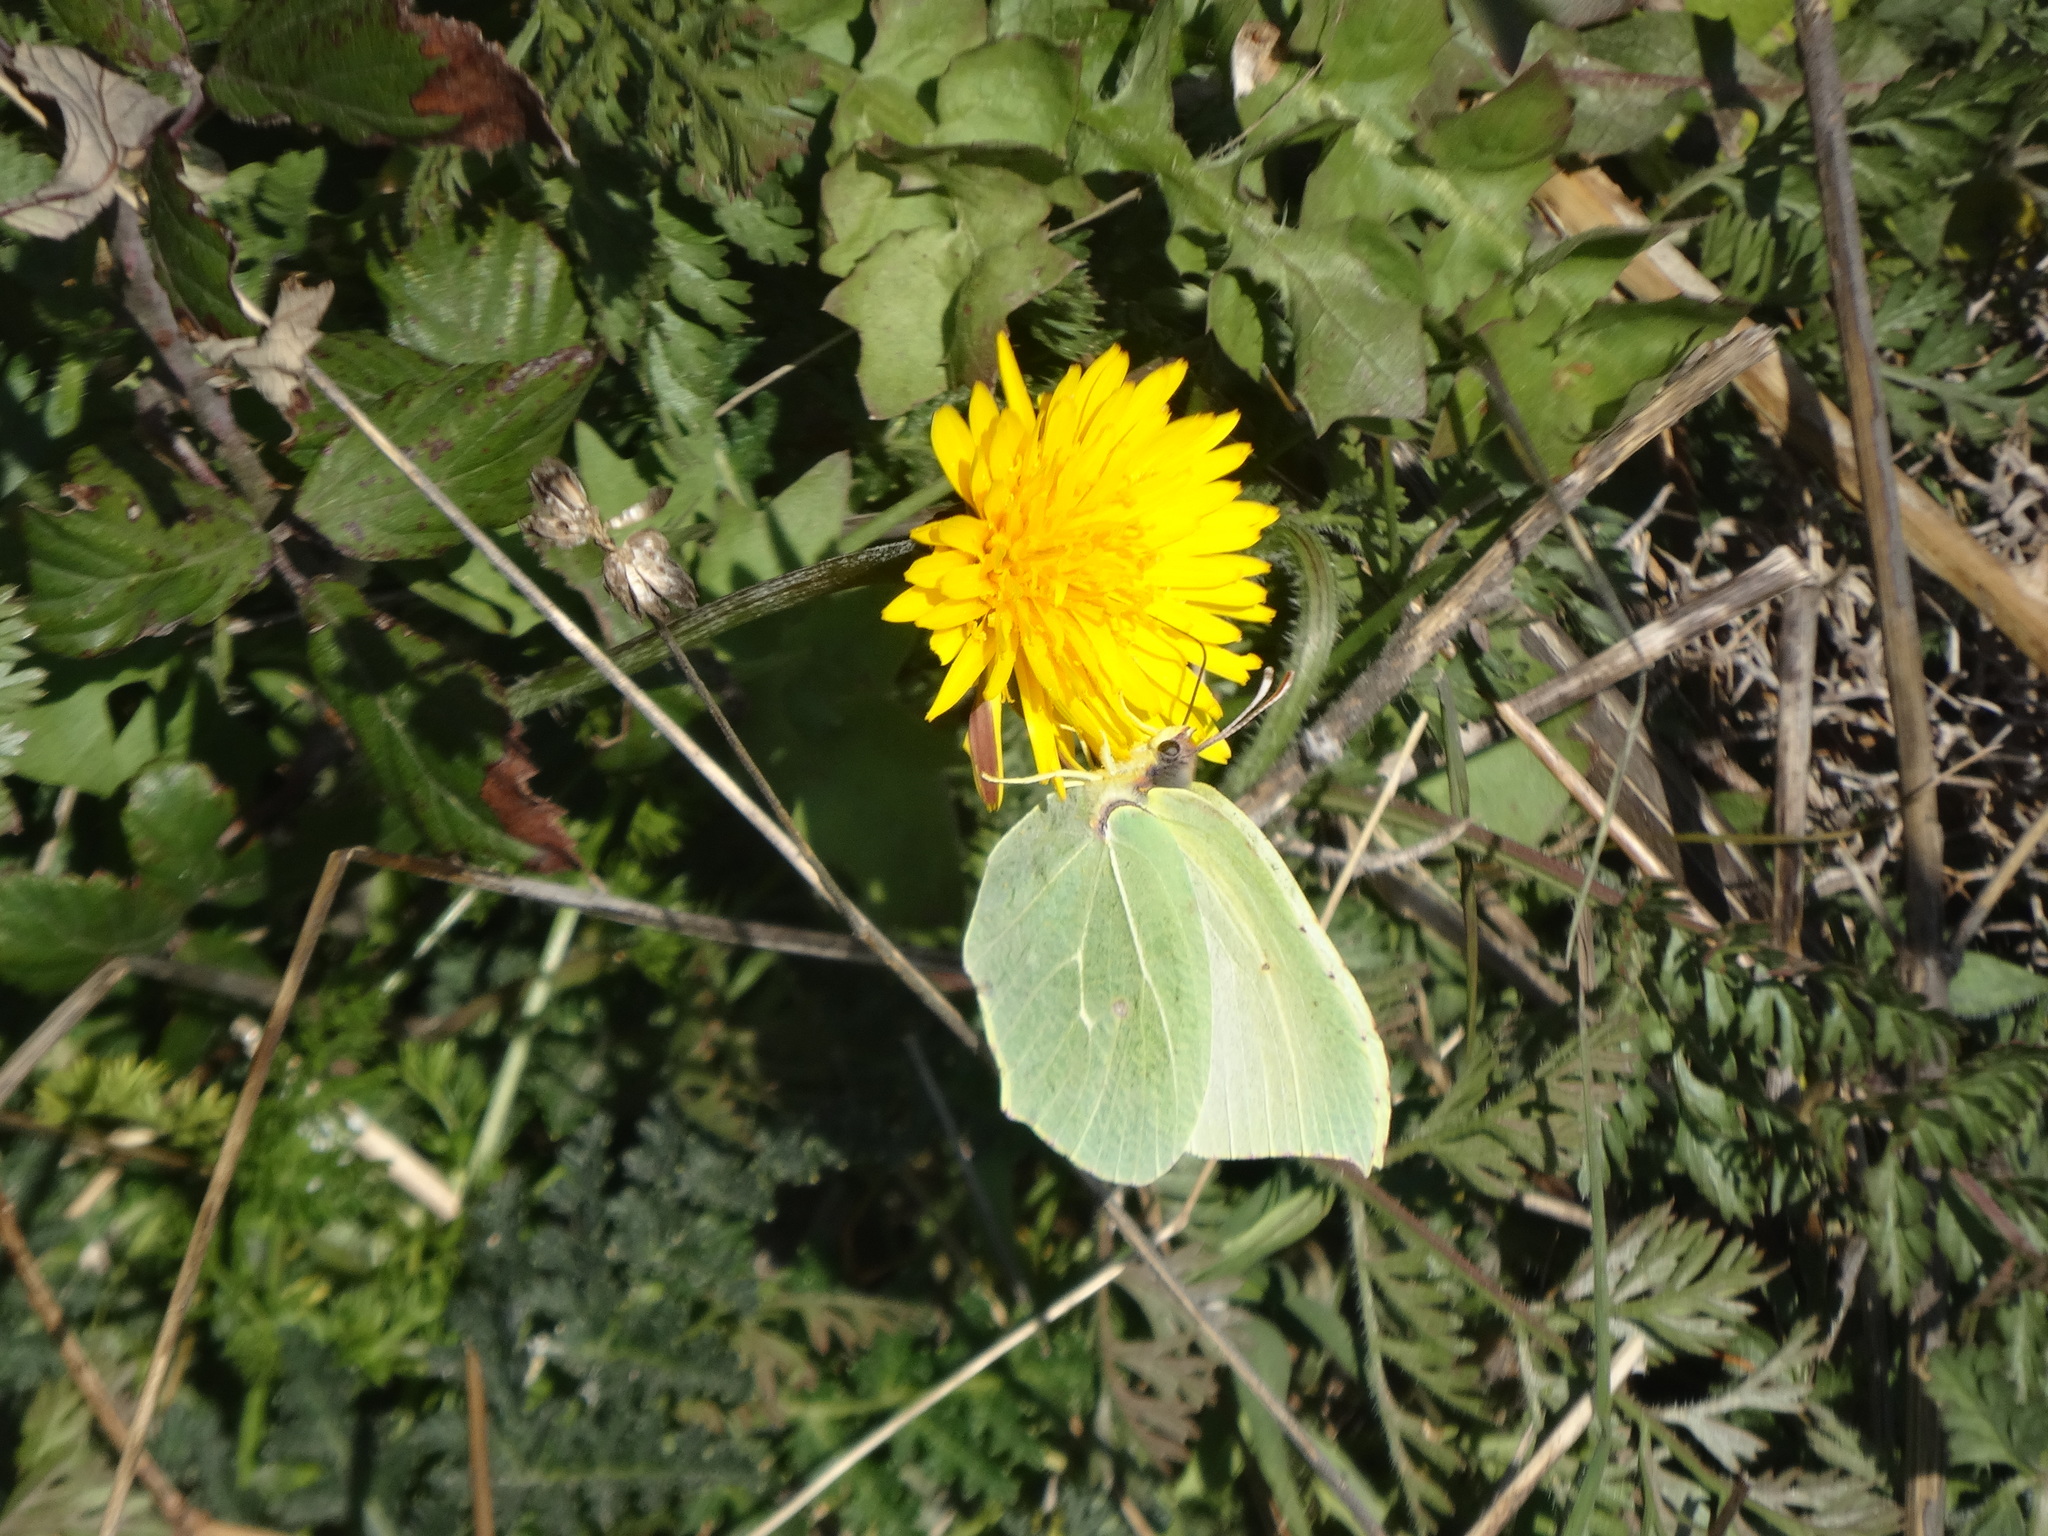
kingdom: Animalia
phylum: Arthropoda
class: Insecta
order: Lepidoptera
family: Pieridae
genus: Gonepteryx
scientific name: Gonepteryx cleopatra
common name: Cleopatra
